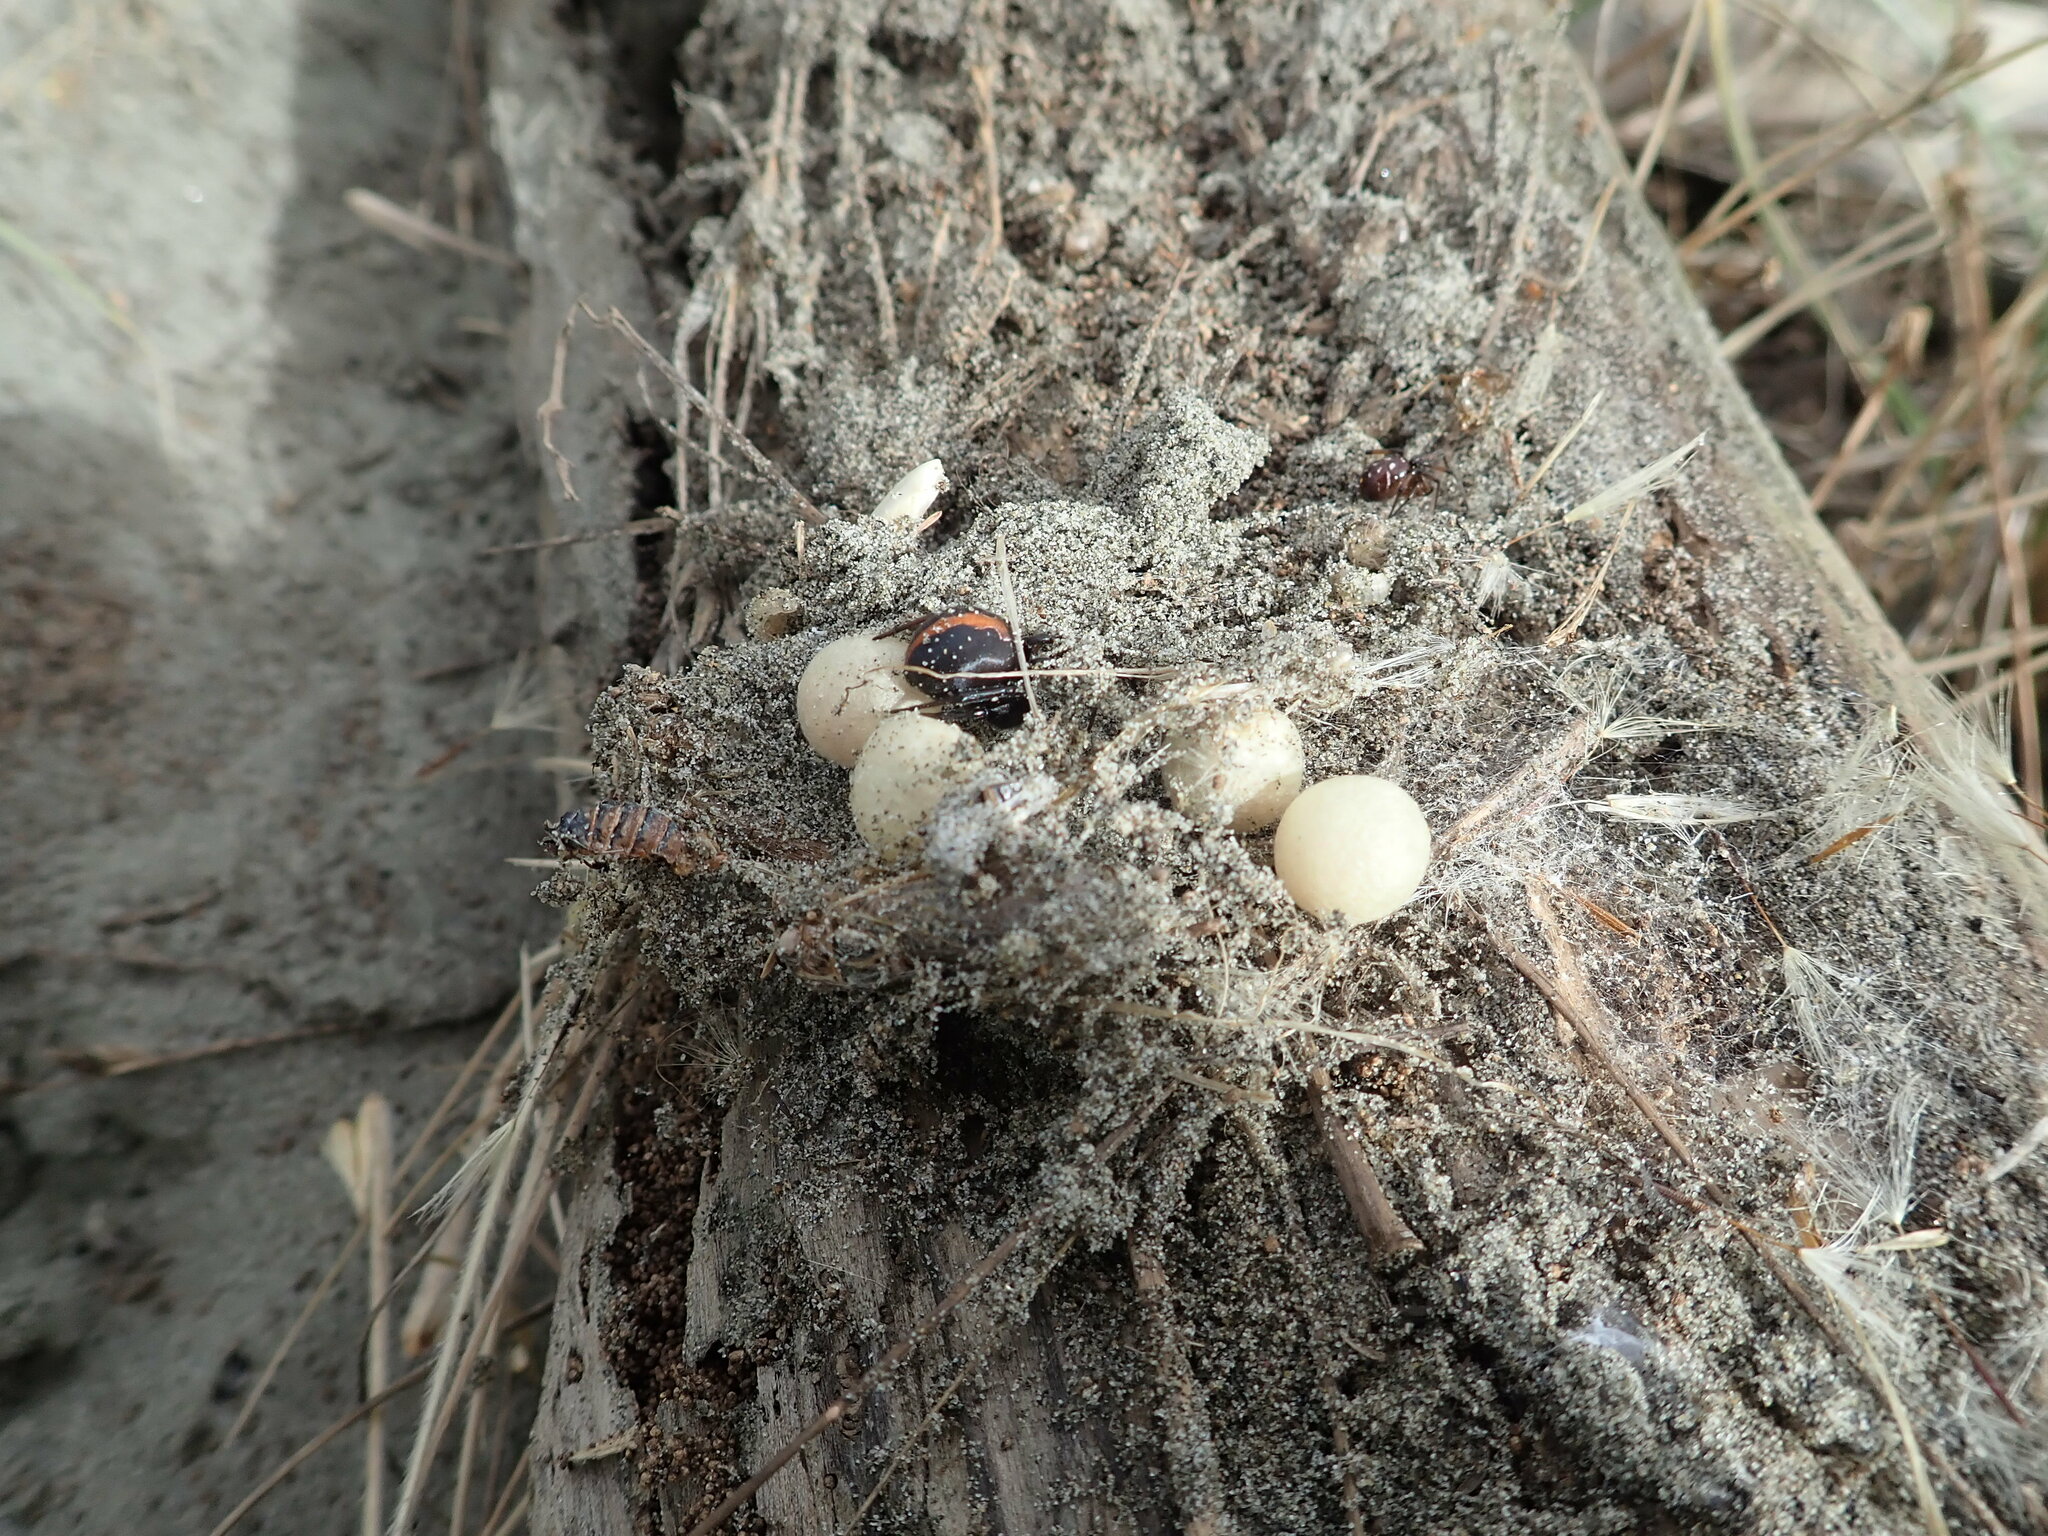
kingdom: Animalia
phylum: Arthropoda
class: Arachnida
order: Araneae
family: Theridiidae
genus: Latrodectus
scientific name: Latrodectus katipo
